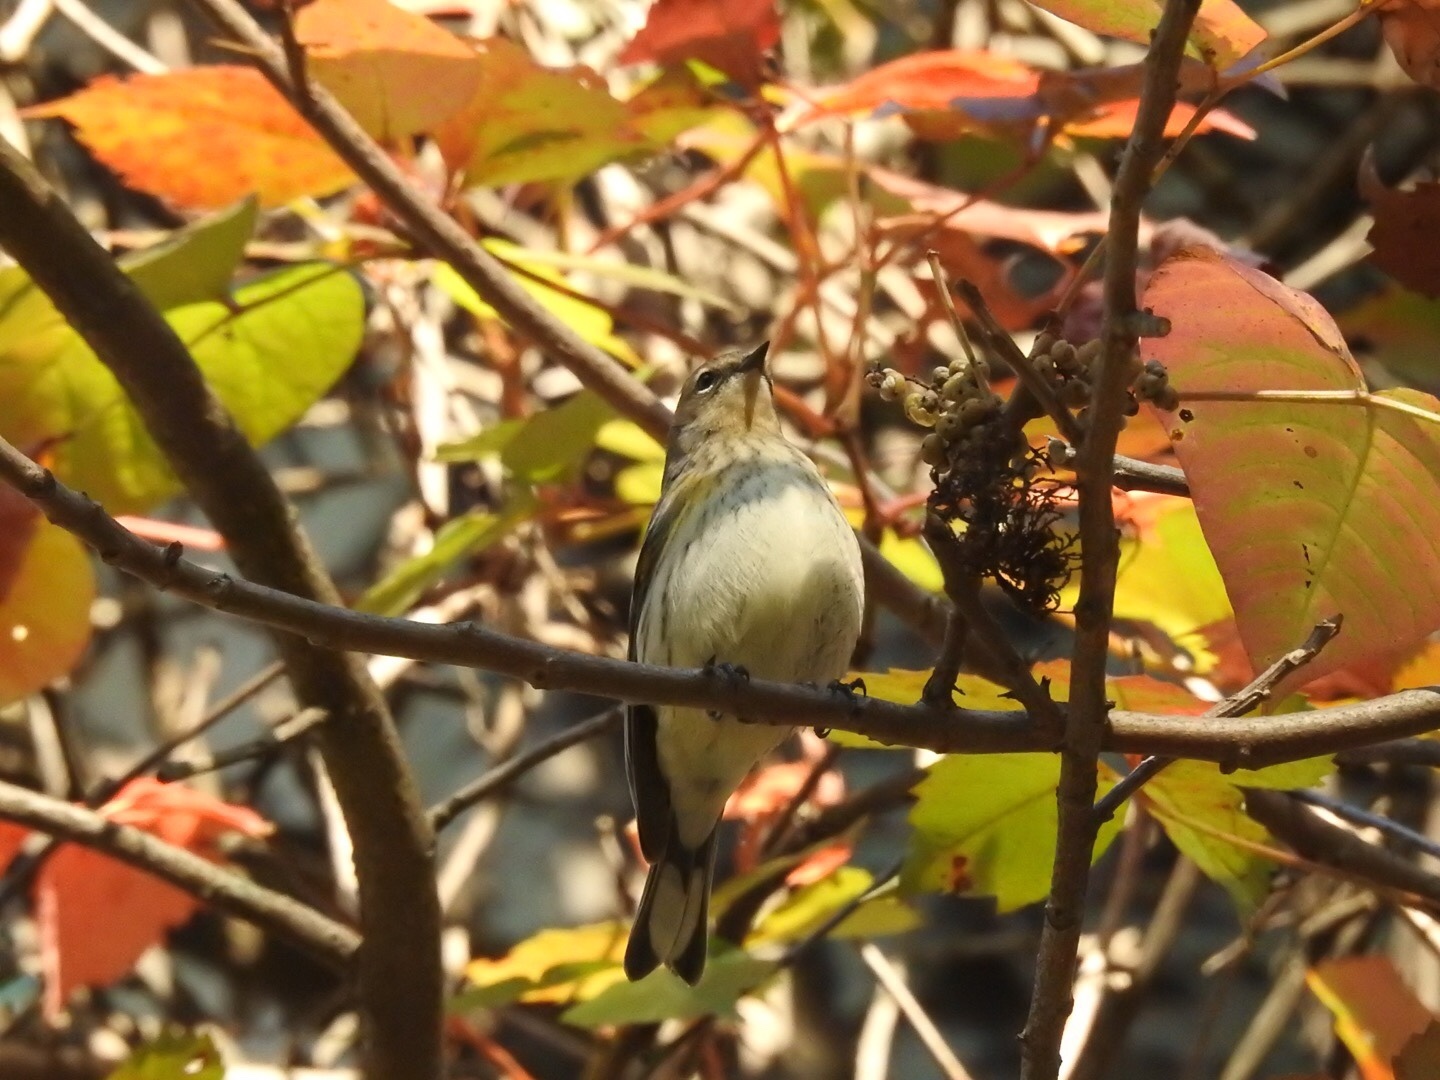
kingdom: Animalia
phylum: Chordata
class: Aves
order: Passeriformes
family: Parulidae
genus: Setophaga
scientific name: Setophaga coronata
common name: Myrtle warbler
